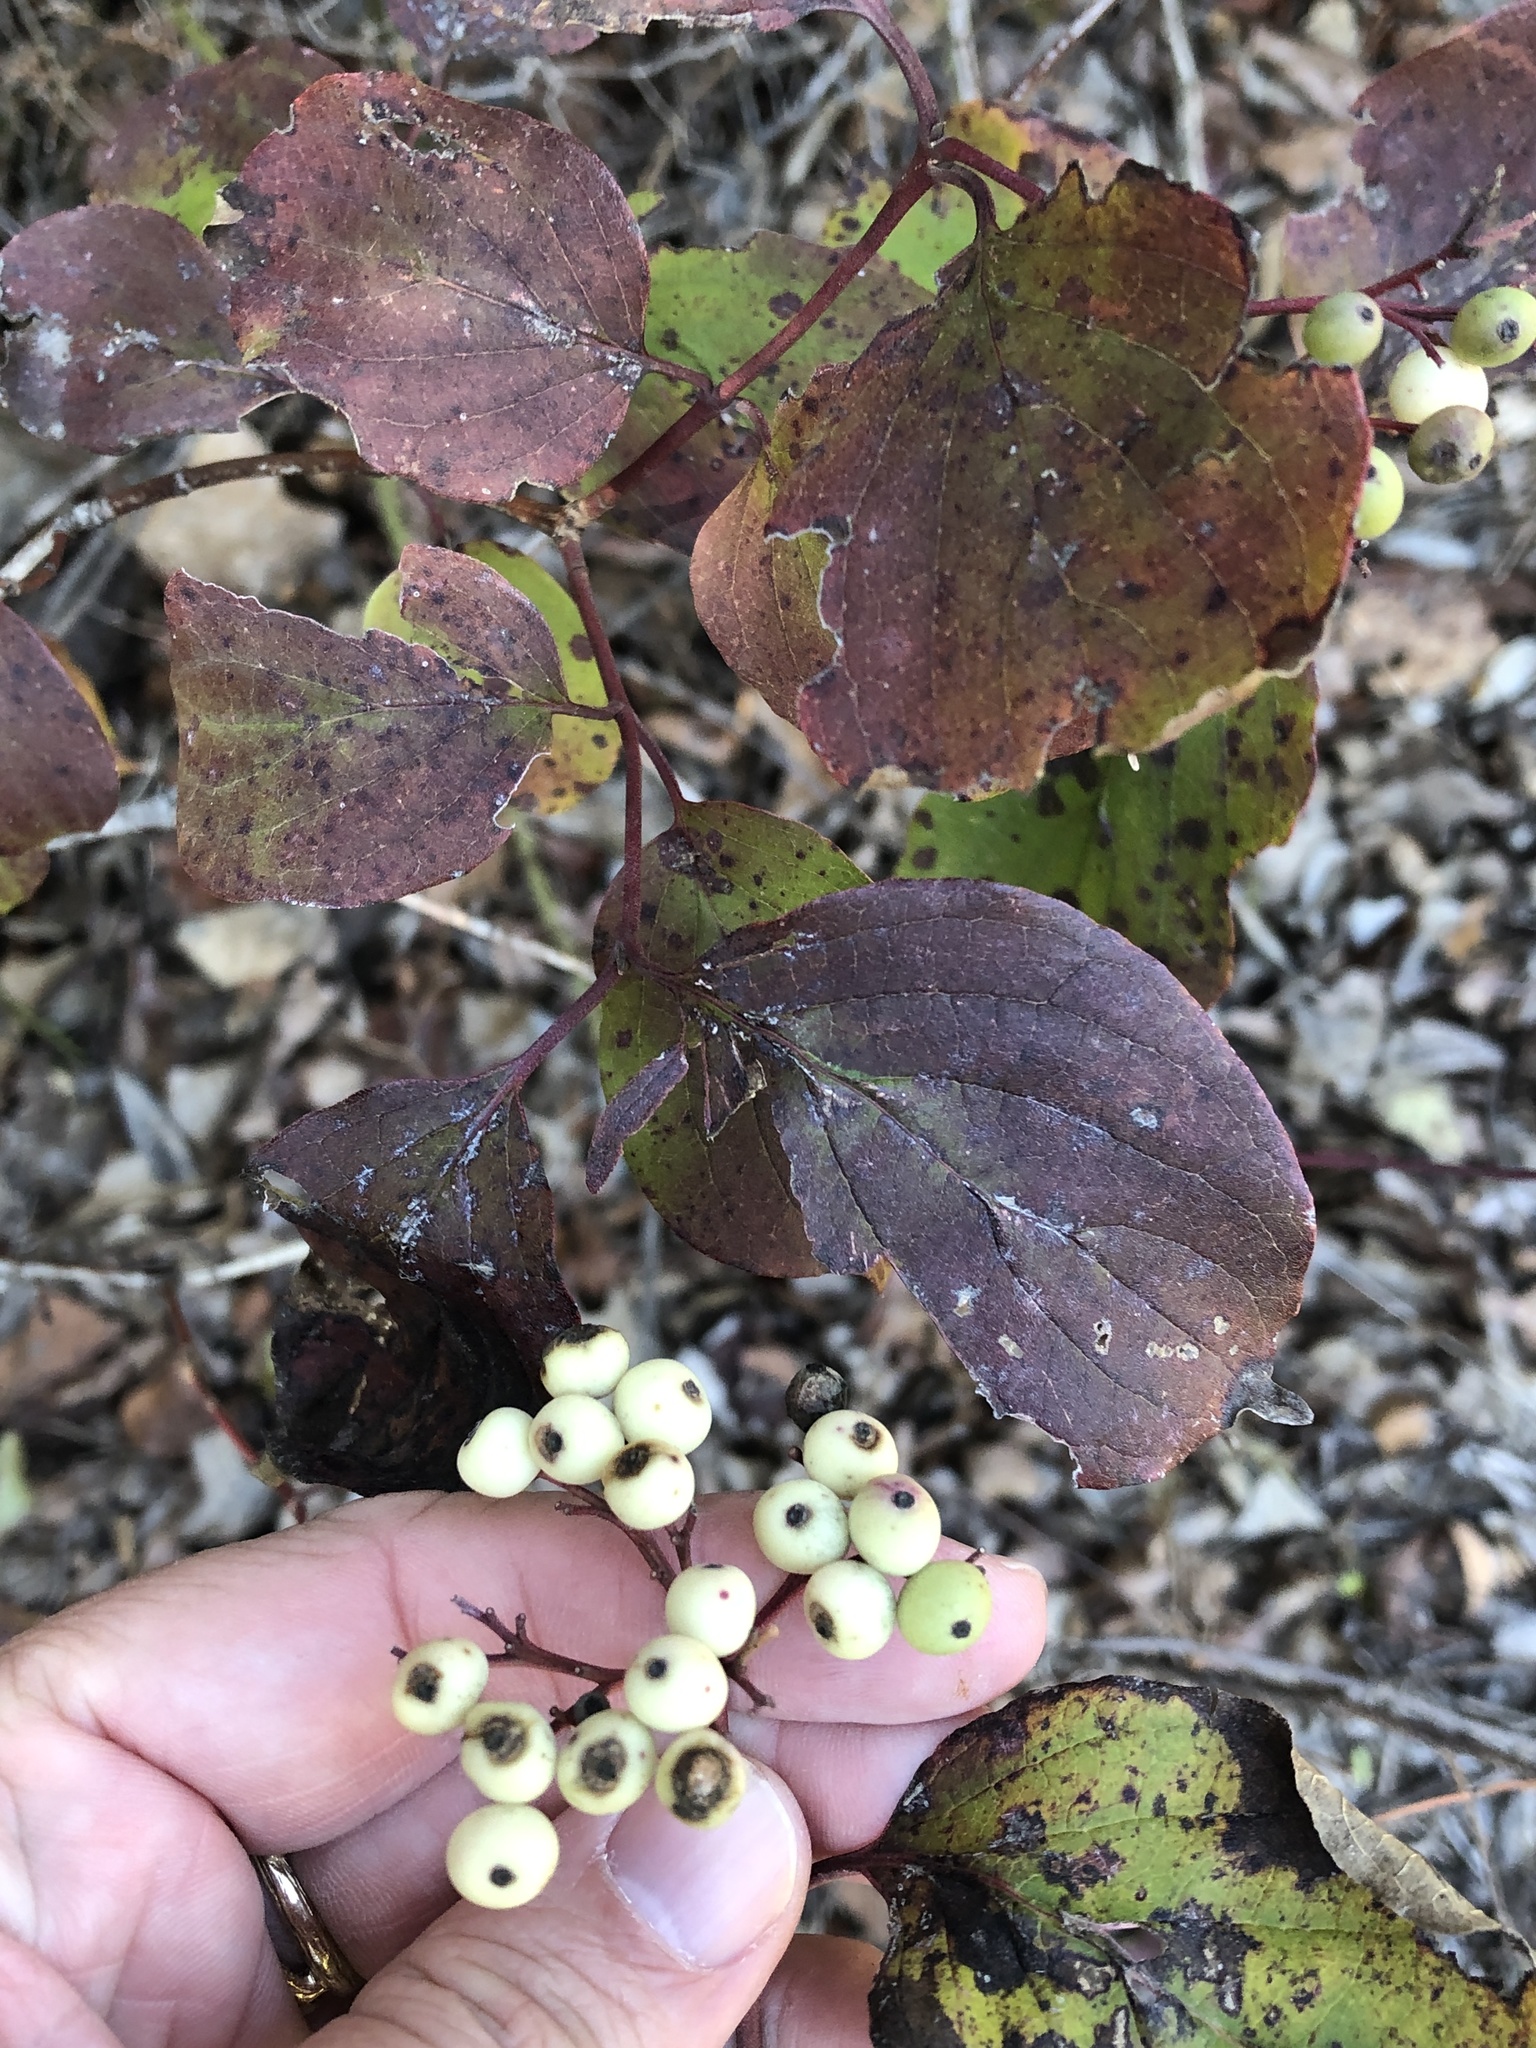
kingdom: Plantae
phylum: Tracheophyta
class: Magnoliopsida
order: Cornales
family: Cornaceae
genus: Cornus
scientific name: Cornus drummondii
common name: Rough-leaf dogwood
